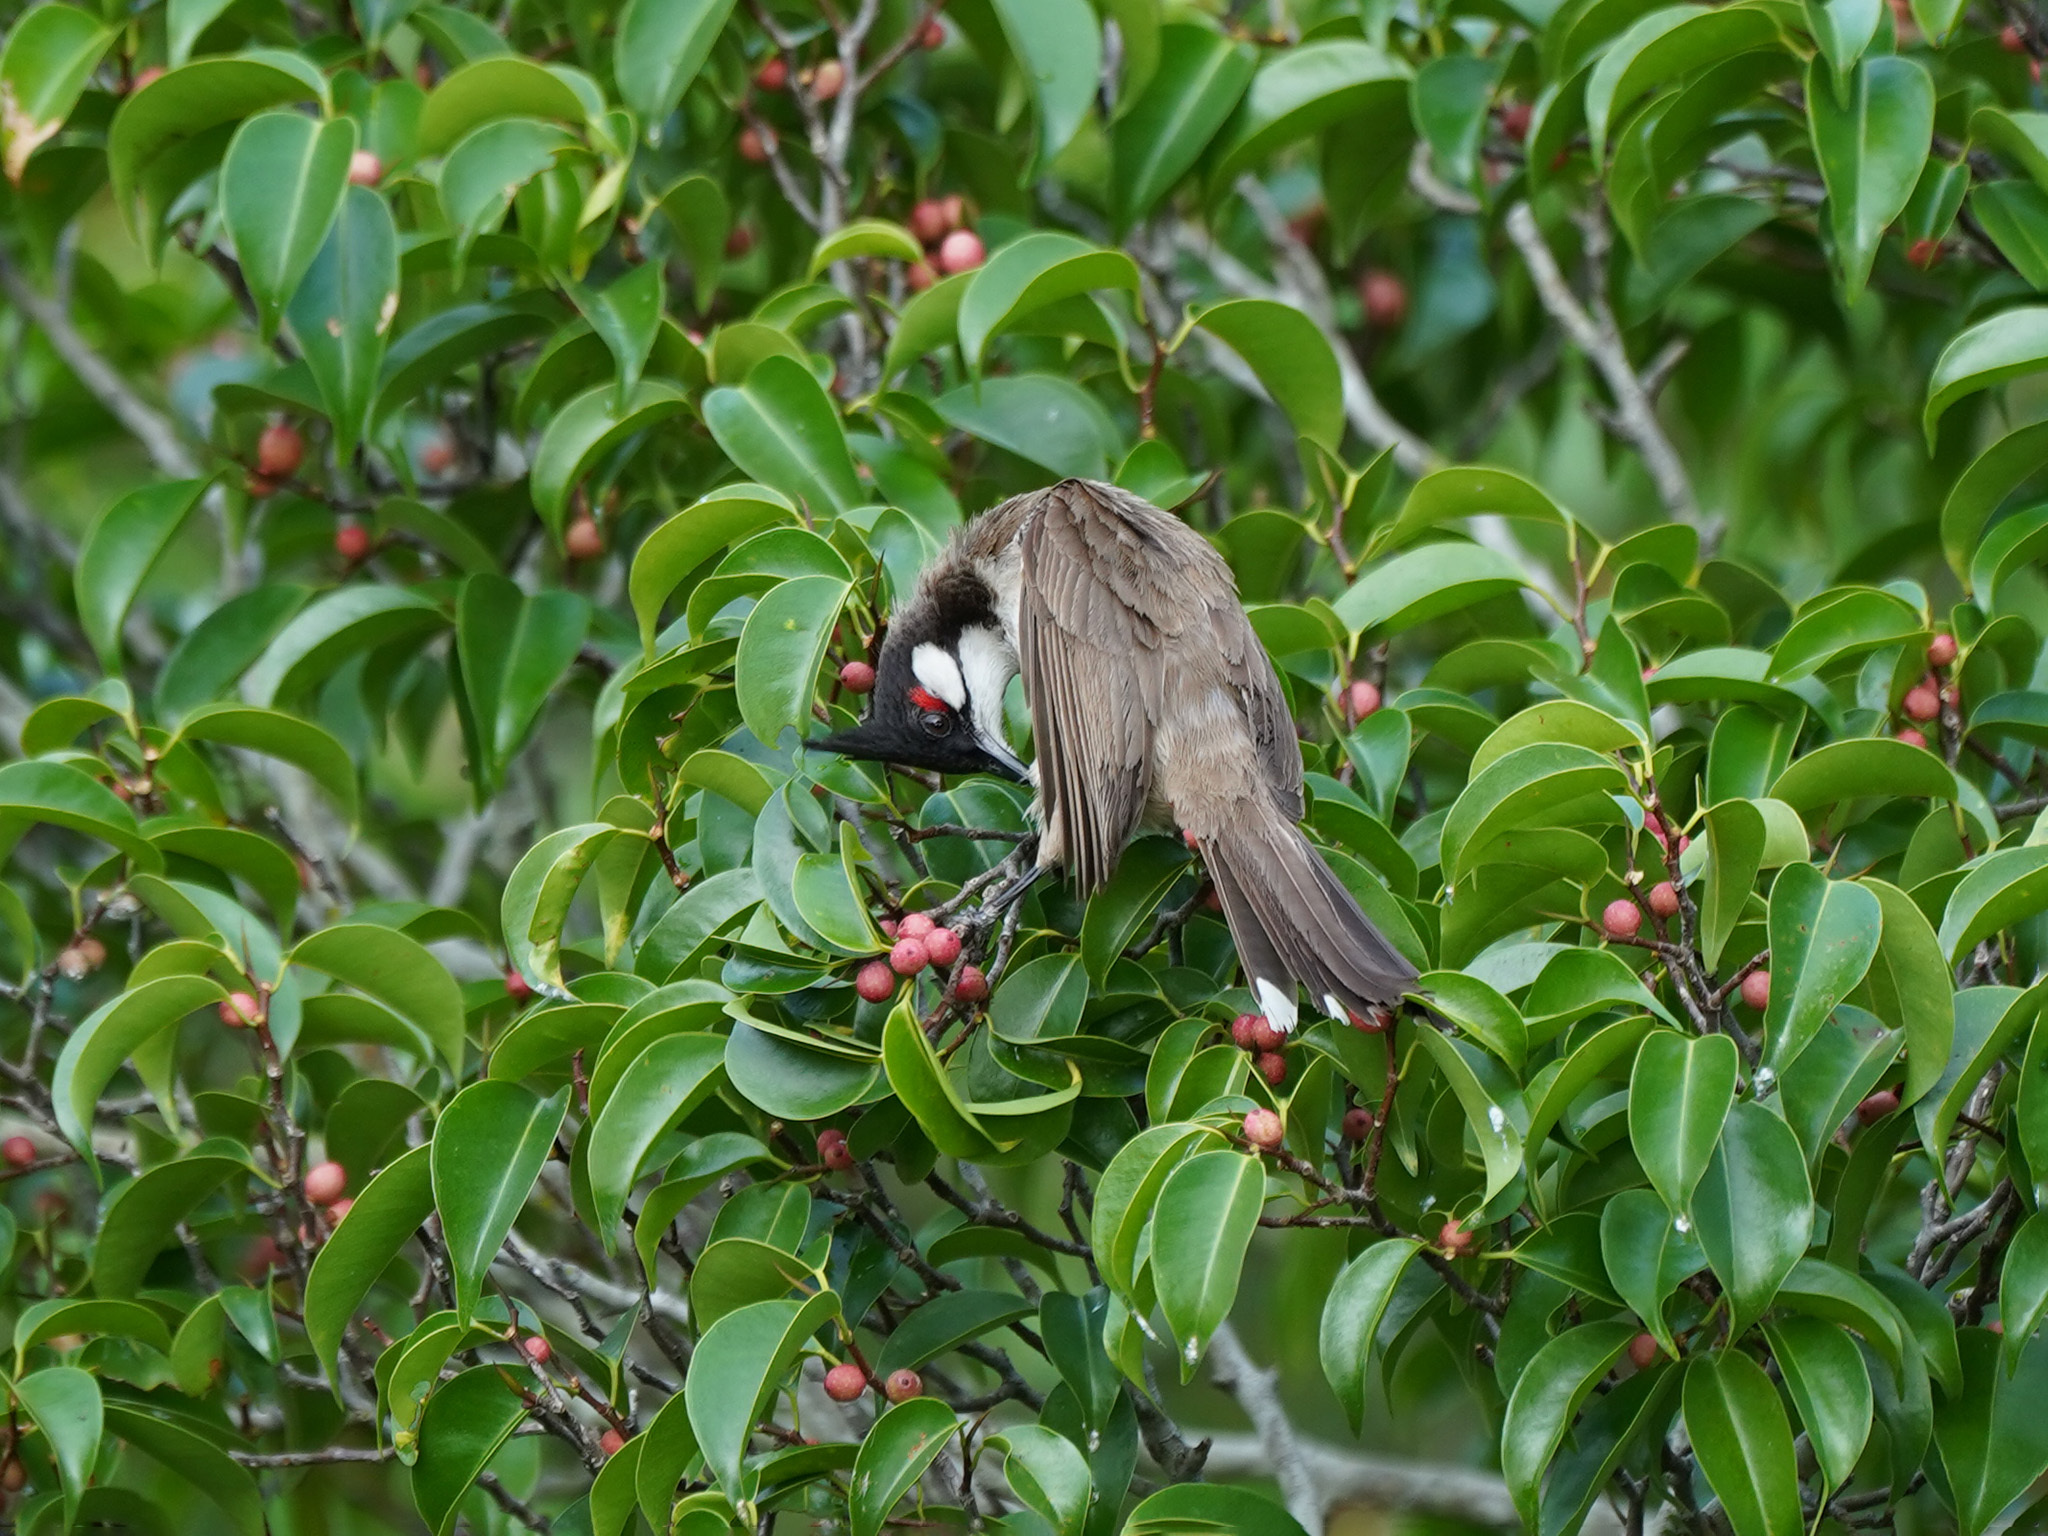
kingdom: Animalia
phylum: Chordata
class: Aves
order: Passeriformes
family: Pycnonotidae
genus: Pycnonotus
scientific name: Pycnonotus jocosus
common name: Red-whiskered bulbul
